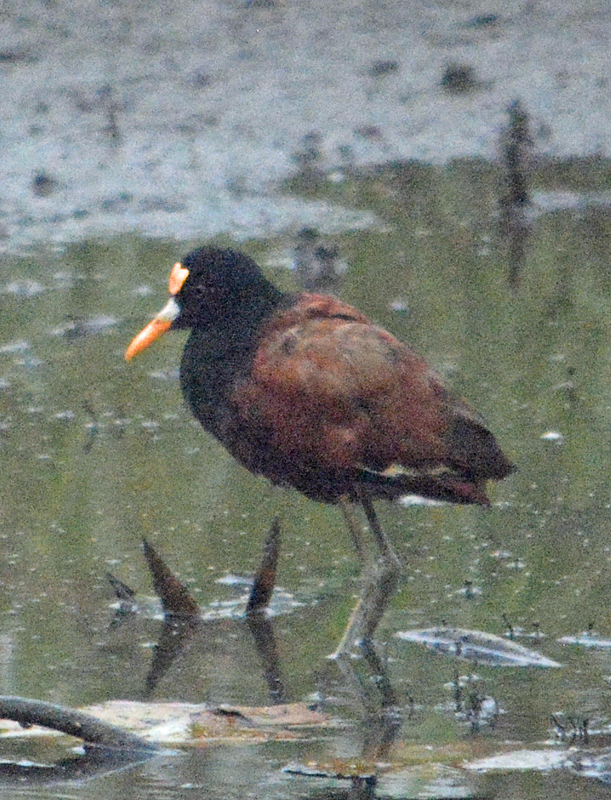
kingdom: Animalia
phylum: Chordata
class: Aves
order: Charadriiformes
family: Jacanidae
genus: Jacana
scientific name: Jacana spinosa
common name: Northern jacana
